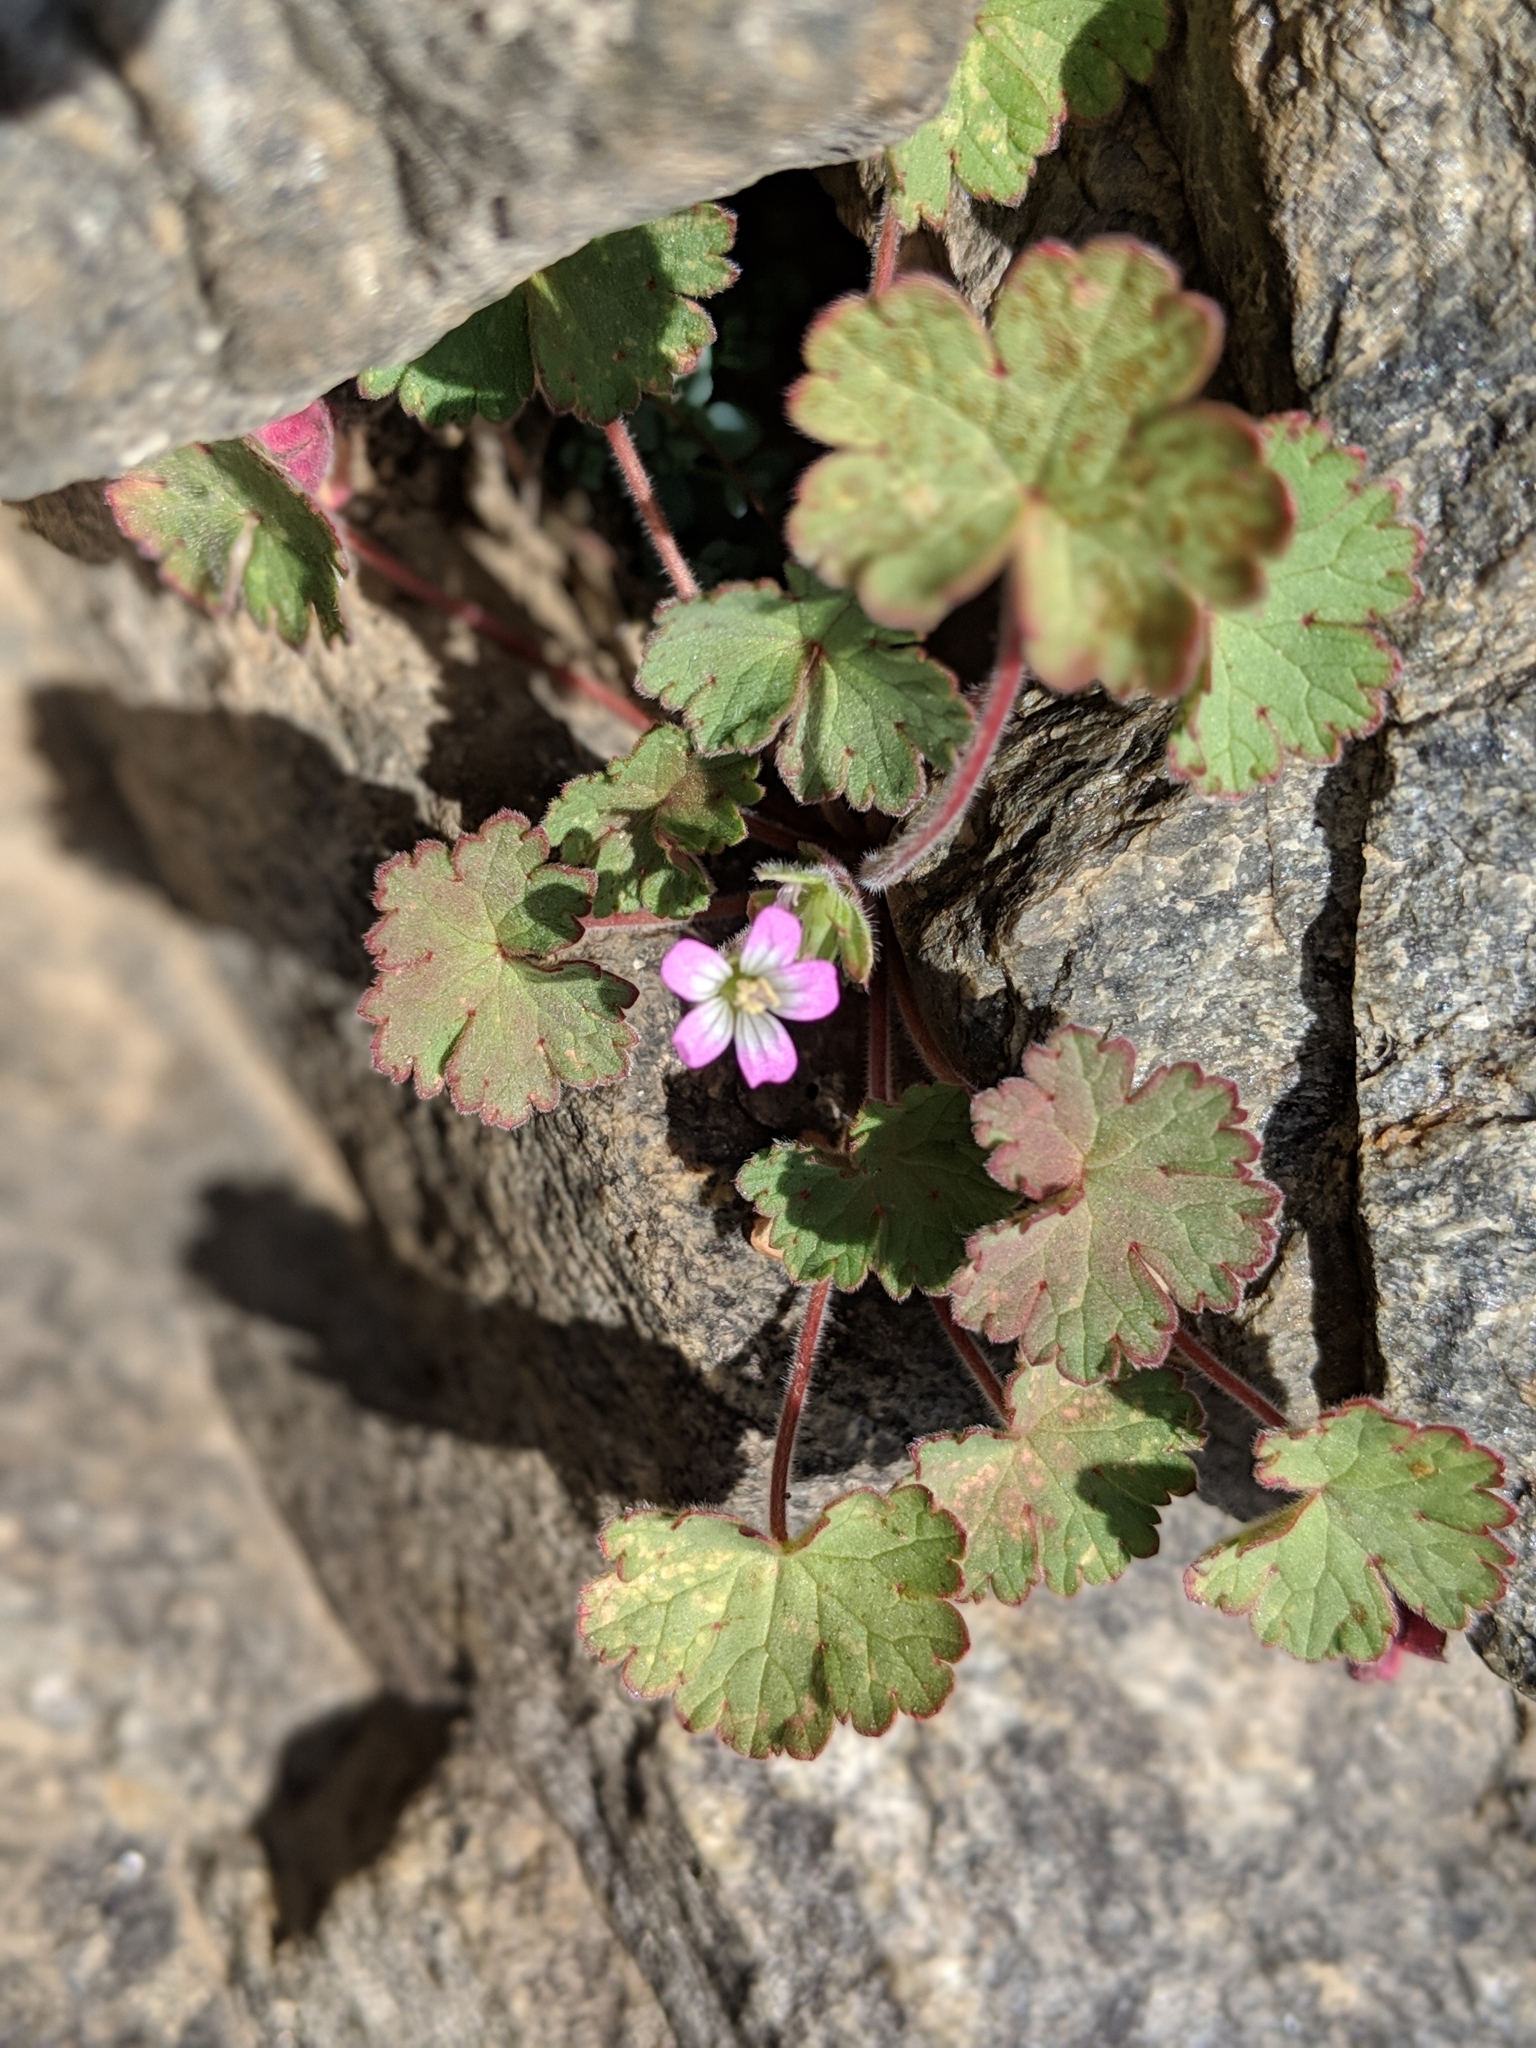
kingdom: Plantae
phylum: Tracheophyta
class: Magnoliopsida
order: Geraniales
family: Geraniaceae
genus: Geranium
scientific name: Geranium rotundifolium
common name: Round-leaved crane's-bill
